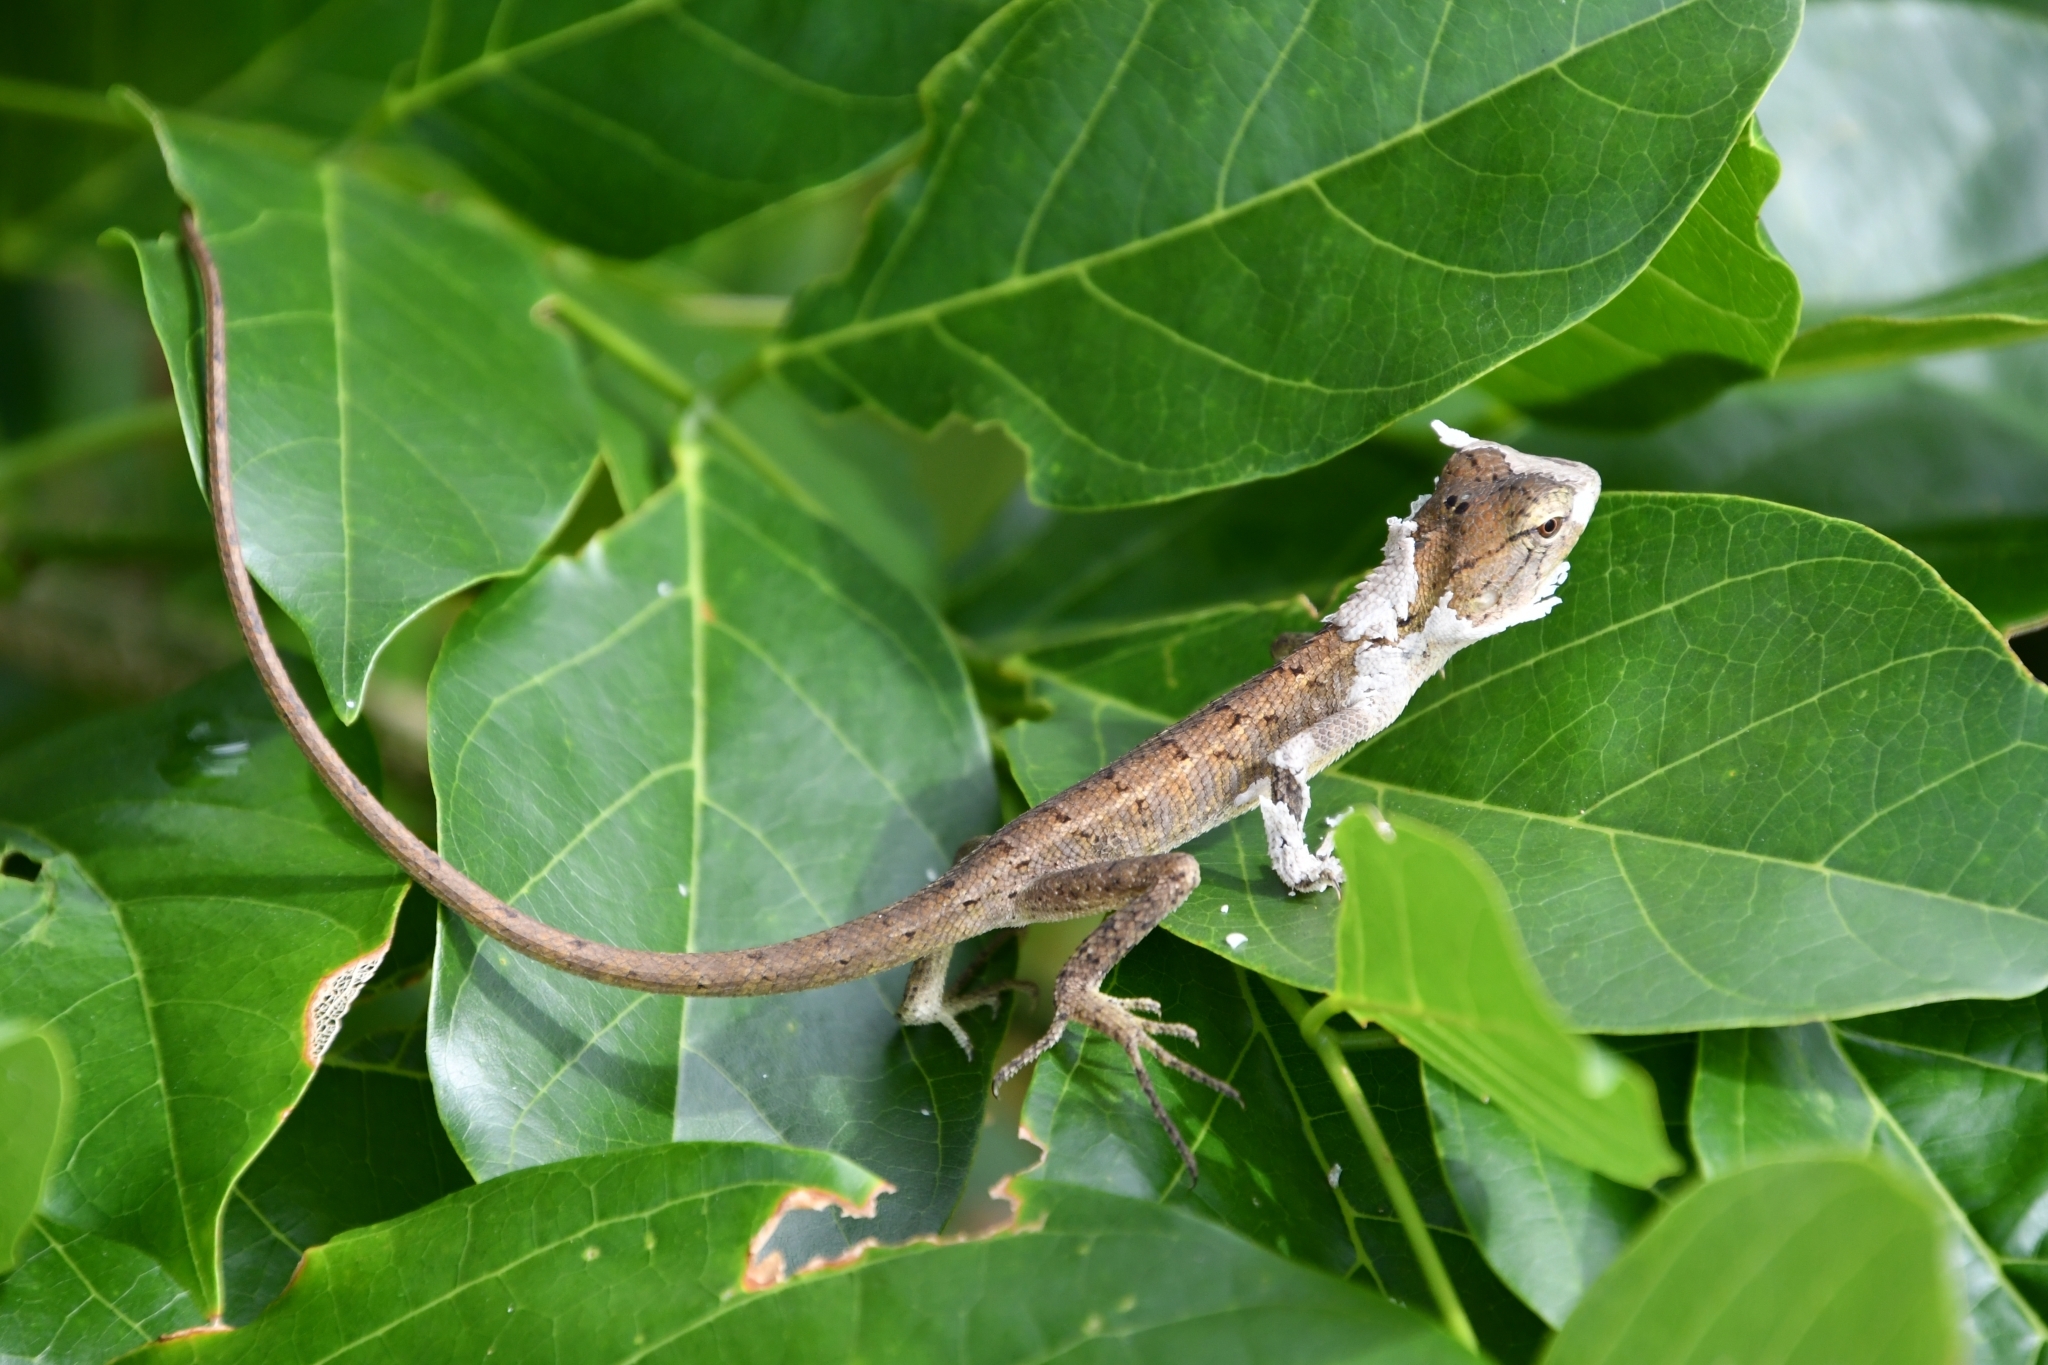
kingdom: Animalia
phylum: Chordata
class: Squamata
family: Agamidae
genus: Calotes
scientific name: Calotes versicolor
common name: Oriental garden lizard
